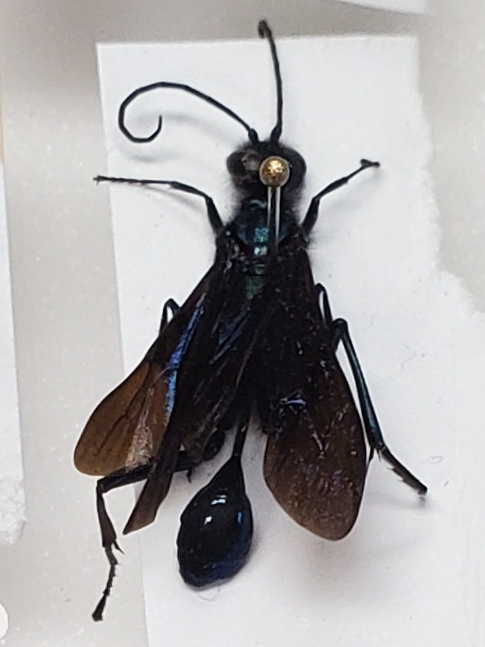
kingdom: Animalia
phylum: Arthropoda
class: Insecta
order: Hymenoptera
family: Sphecidae
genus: Chalybion
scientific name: Chalybion californicum
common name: Mud dauber
